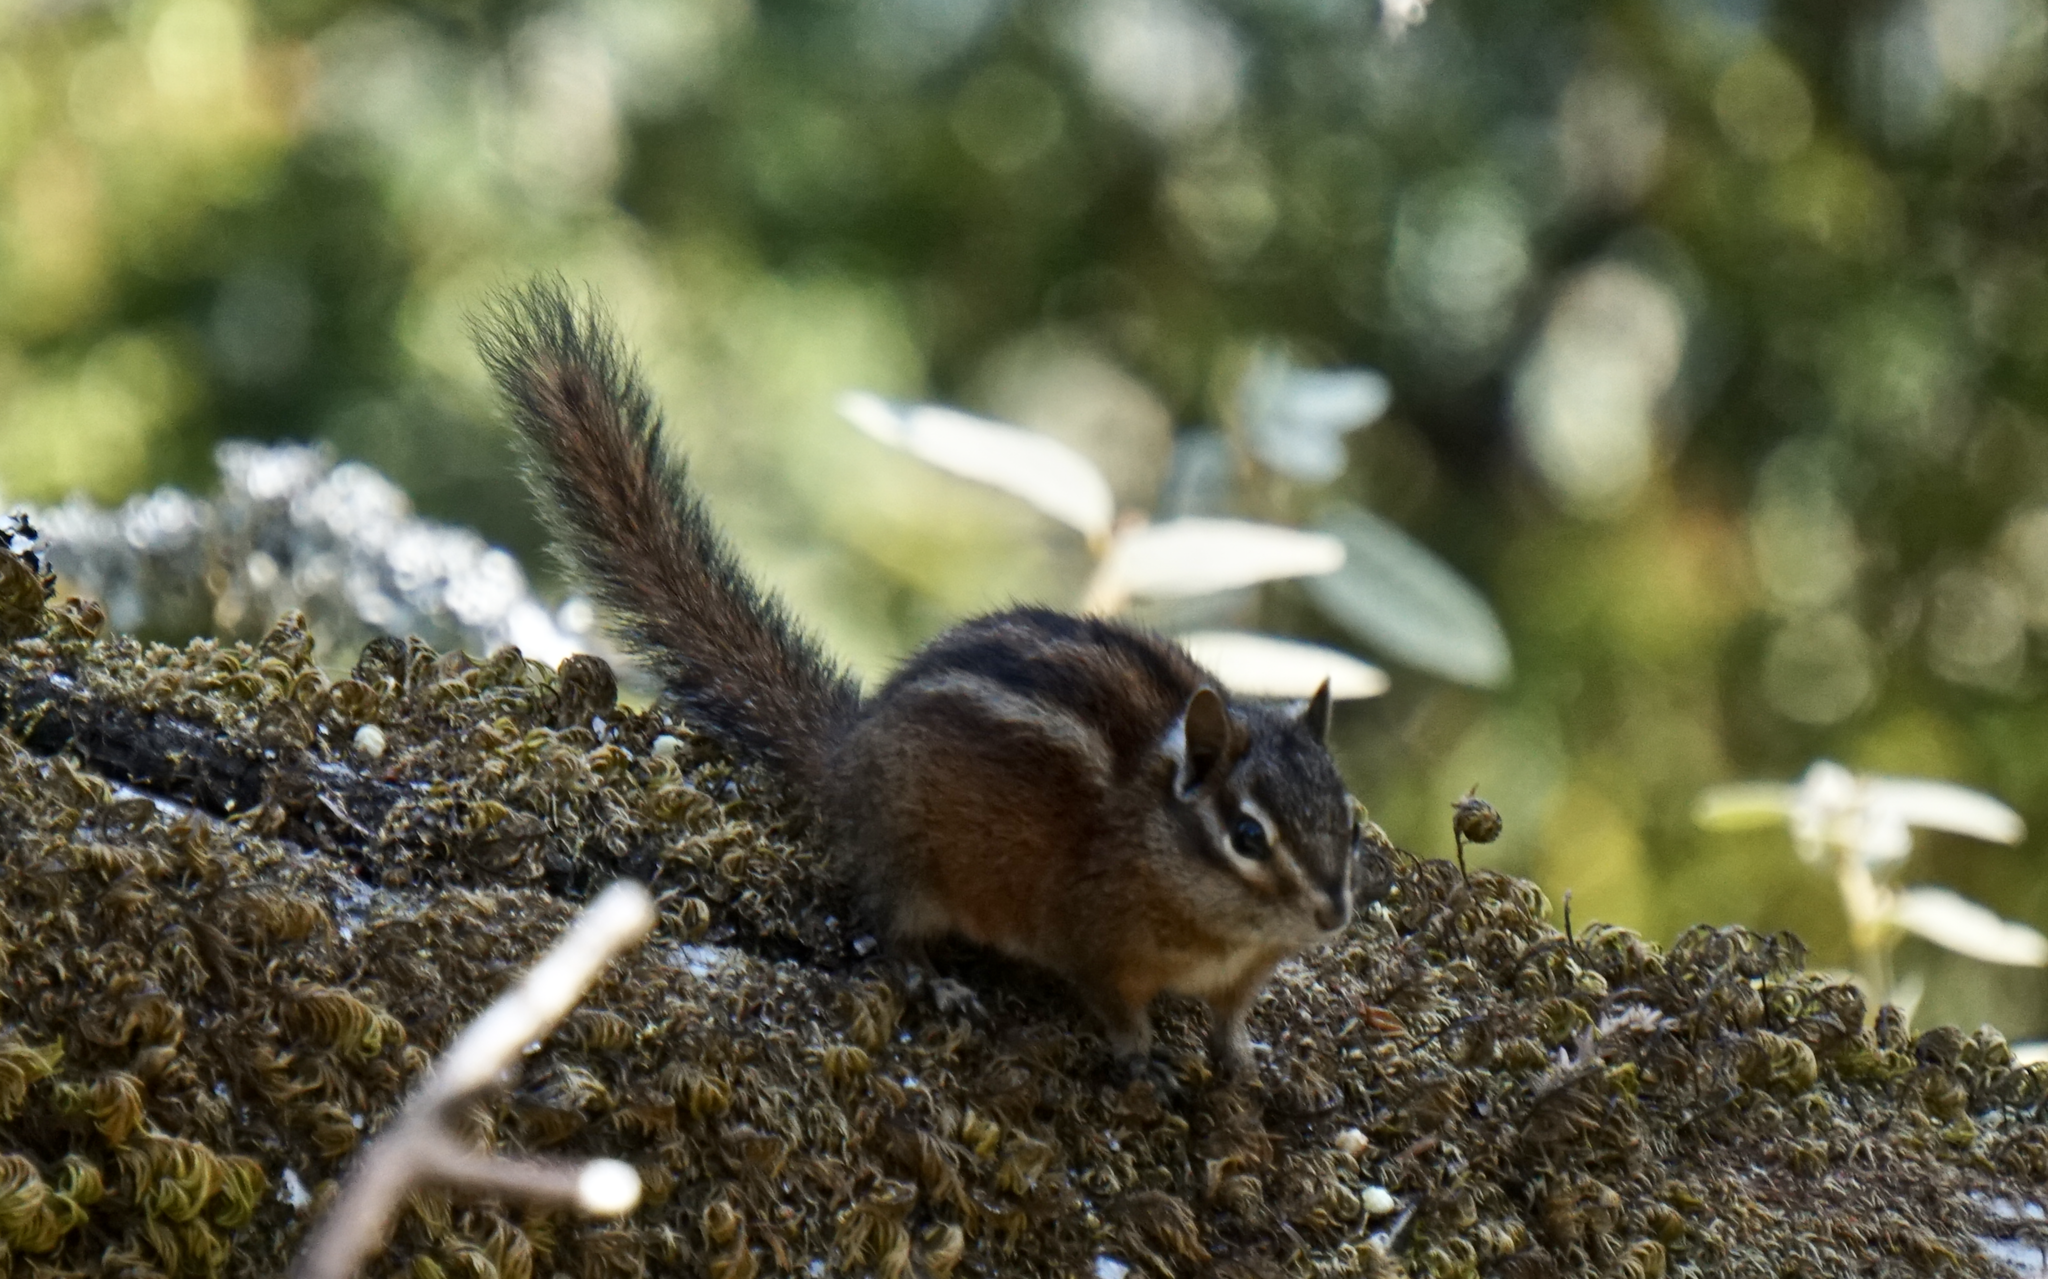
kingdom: Animalia
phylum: Chordata
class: Mammalia
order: Rodentia
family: Sciuridae
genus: Tamias
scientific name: Tamias sonomae
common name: Sonoma chipmunk
